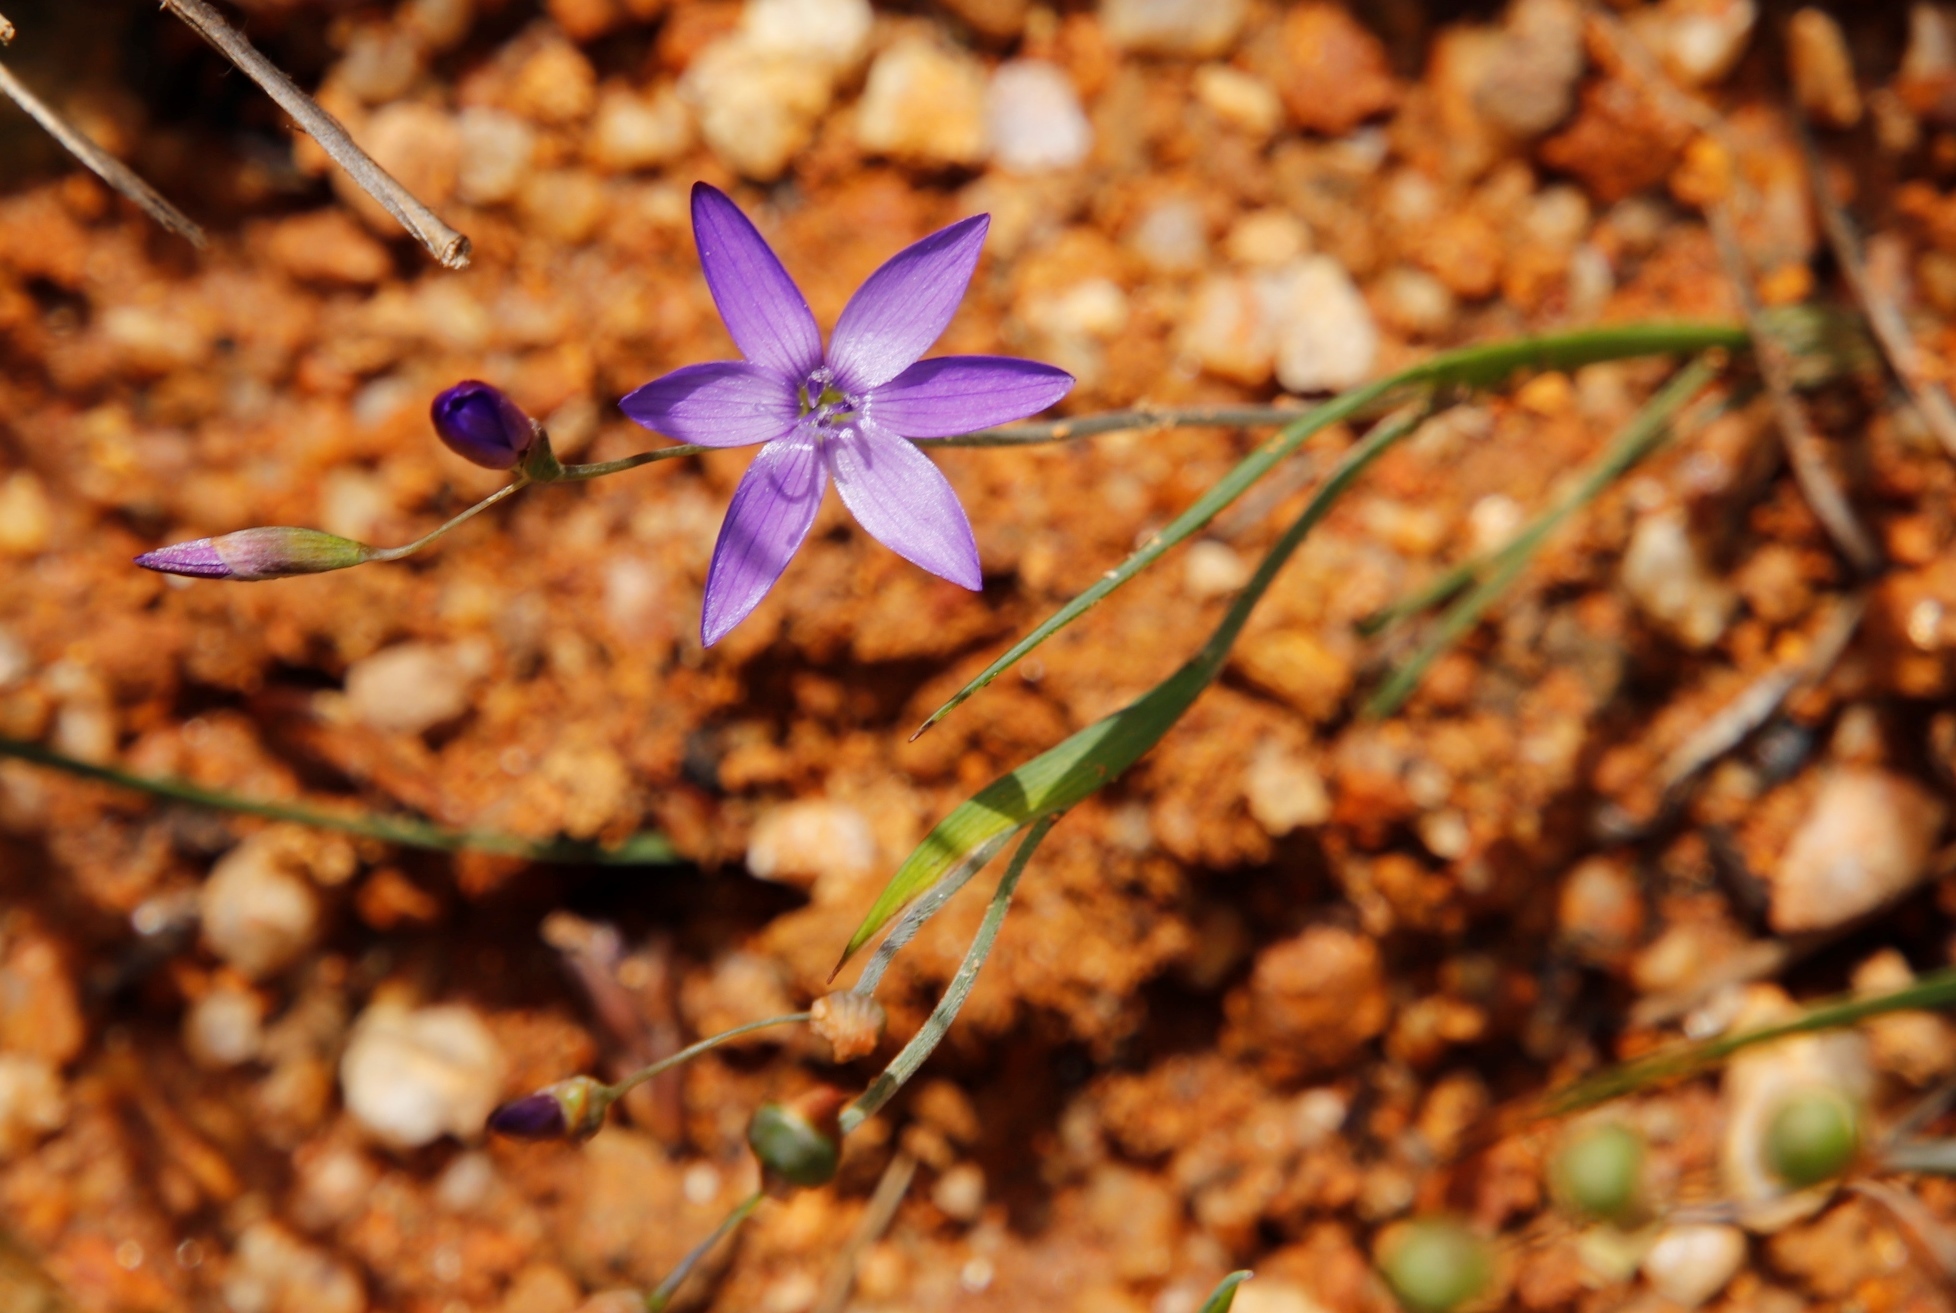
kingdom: Plantae
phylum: Tracheophyta
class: Liliopsida
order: Asparagales
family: Iridaceae
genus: Geissorhiza
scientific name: Geissorhiza aspera
